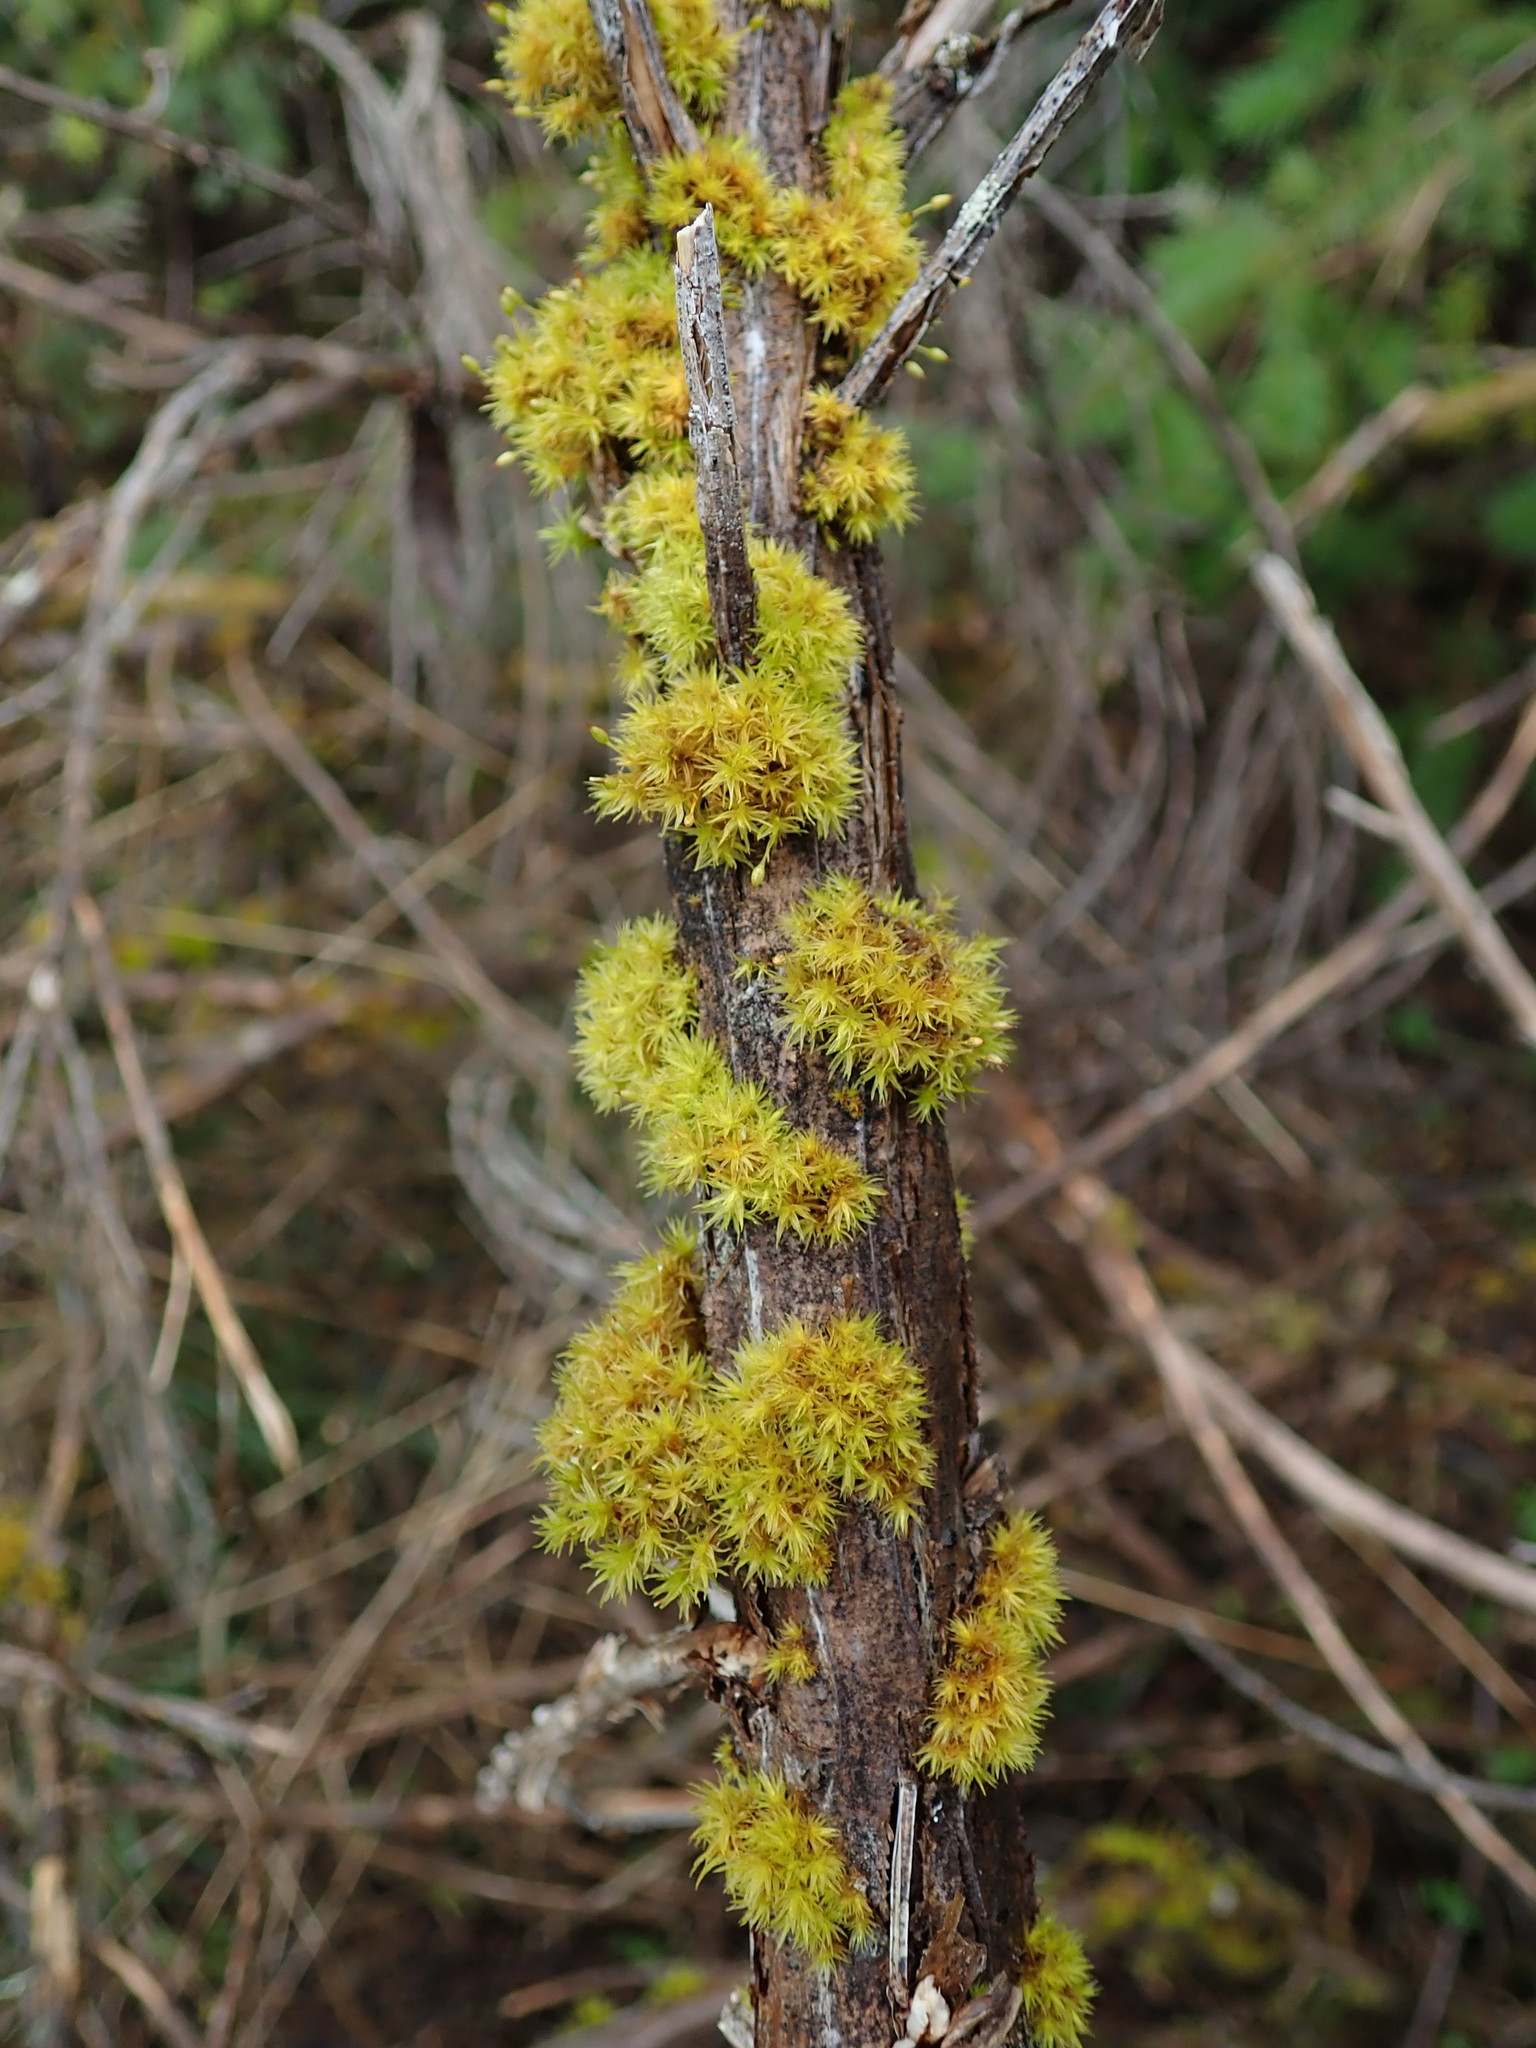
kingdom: Plantae
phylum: Bryophyta
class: Bryopsida
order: Orthotrichales
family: Orthotrichaceae
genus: Orthotrichum
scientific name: Orthotrichum consimile
